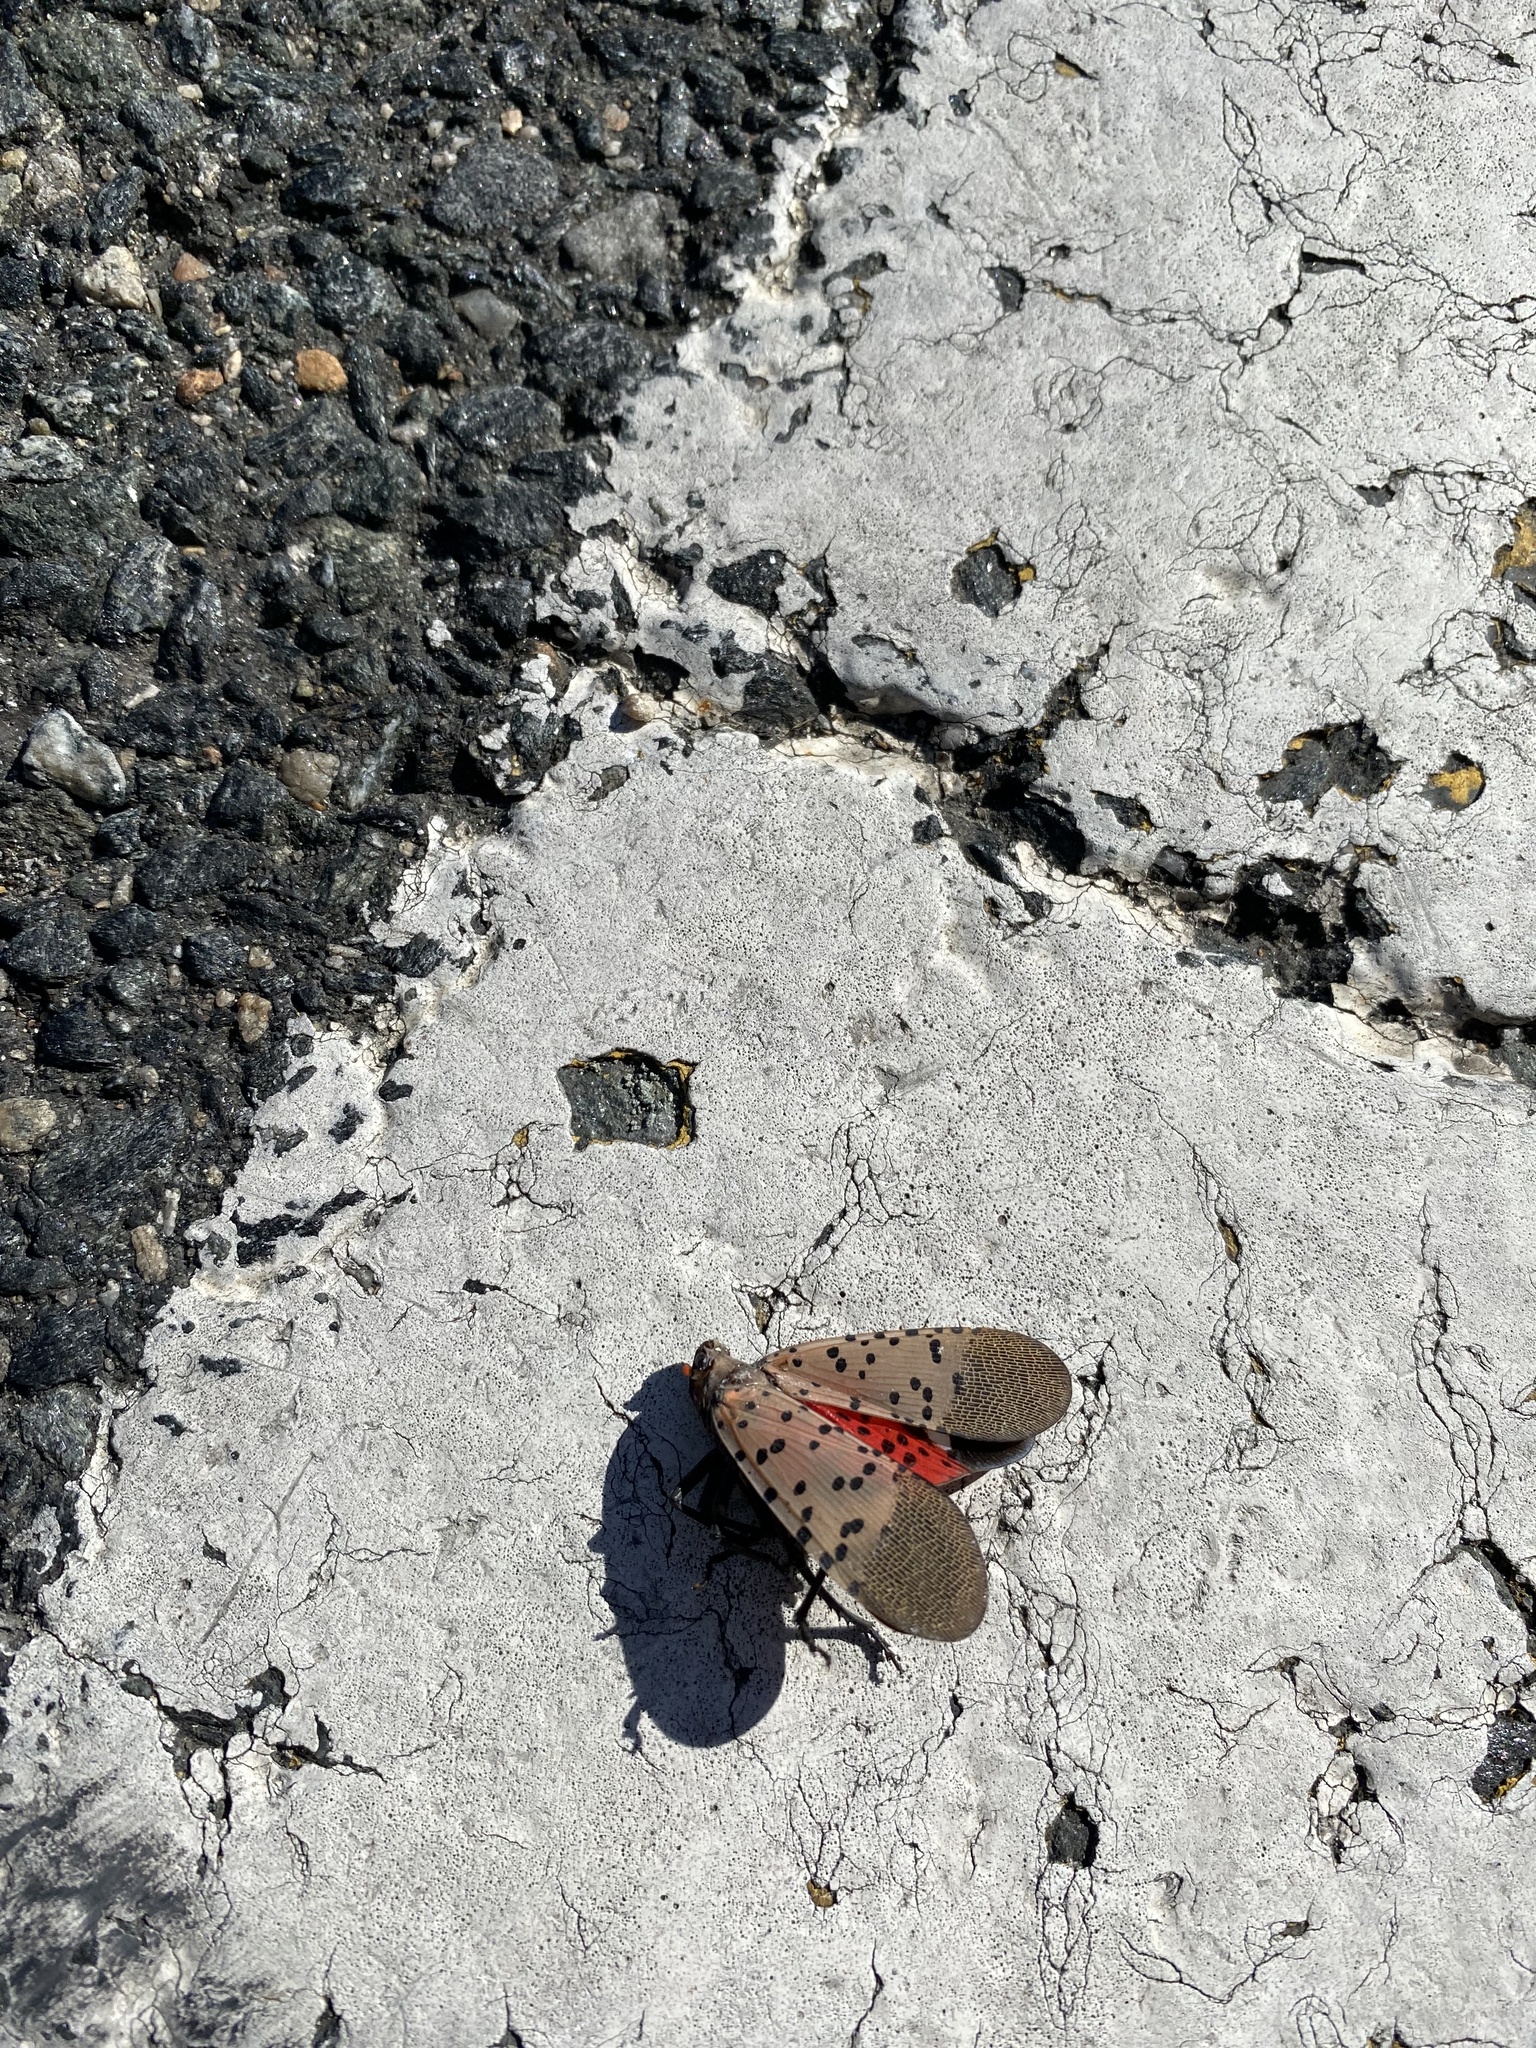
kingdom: Animalia
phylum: Arthropoda
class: Insecta
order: Hemiptera
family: Fulgoridae
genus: Lycorma
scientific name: Lycorma delicatula
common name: Spotted lanternfly
